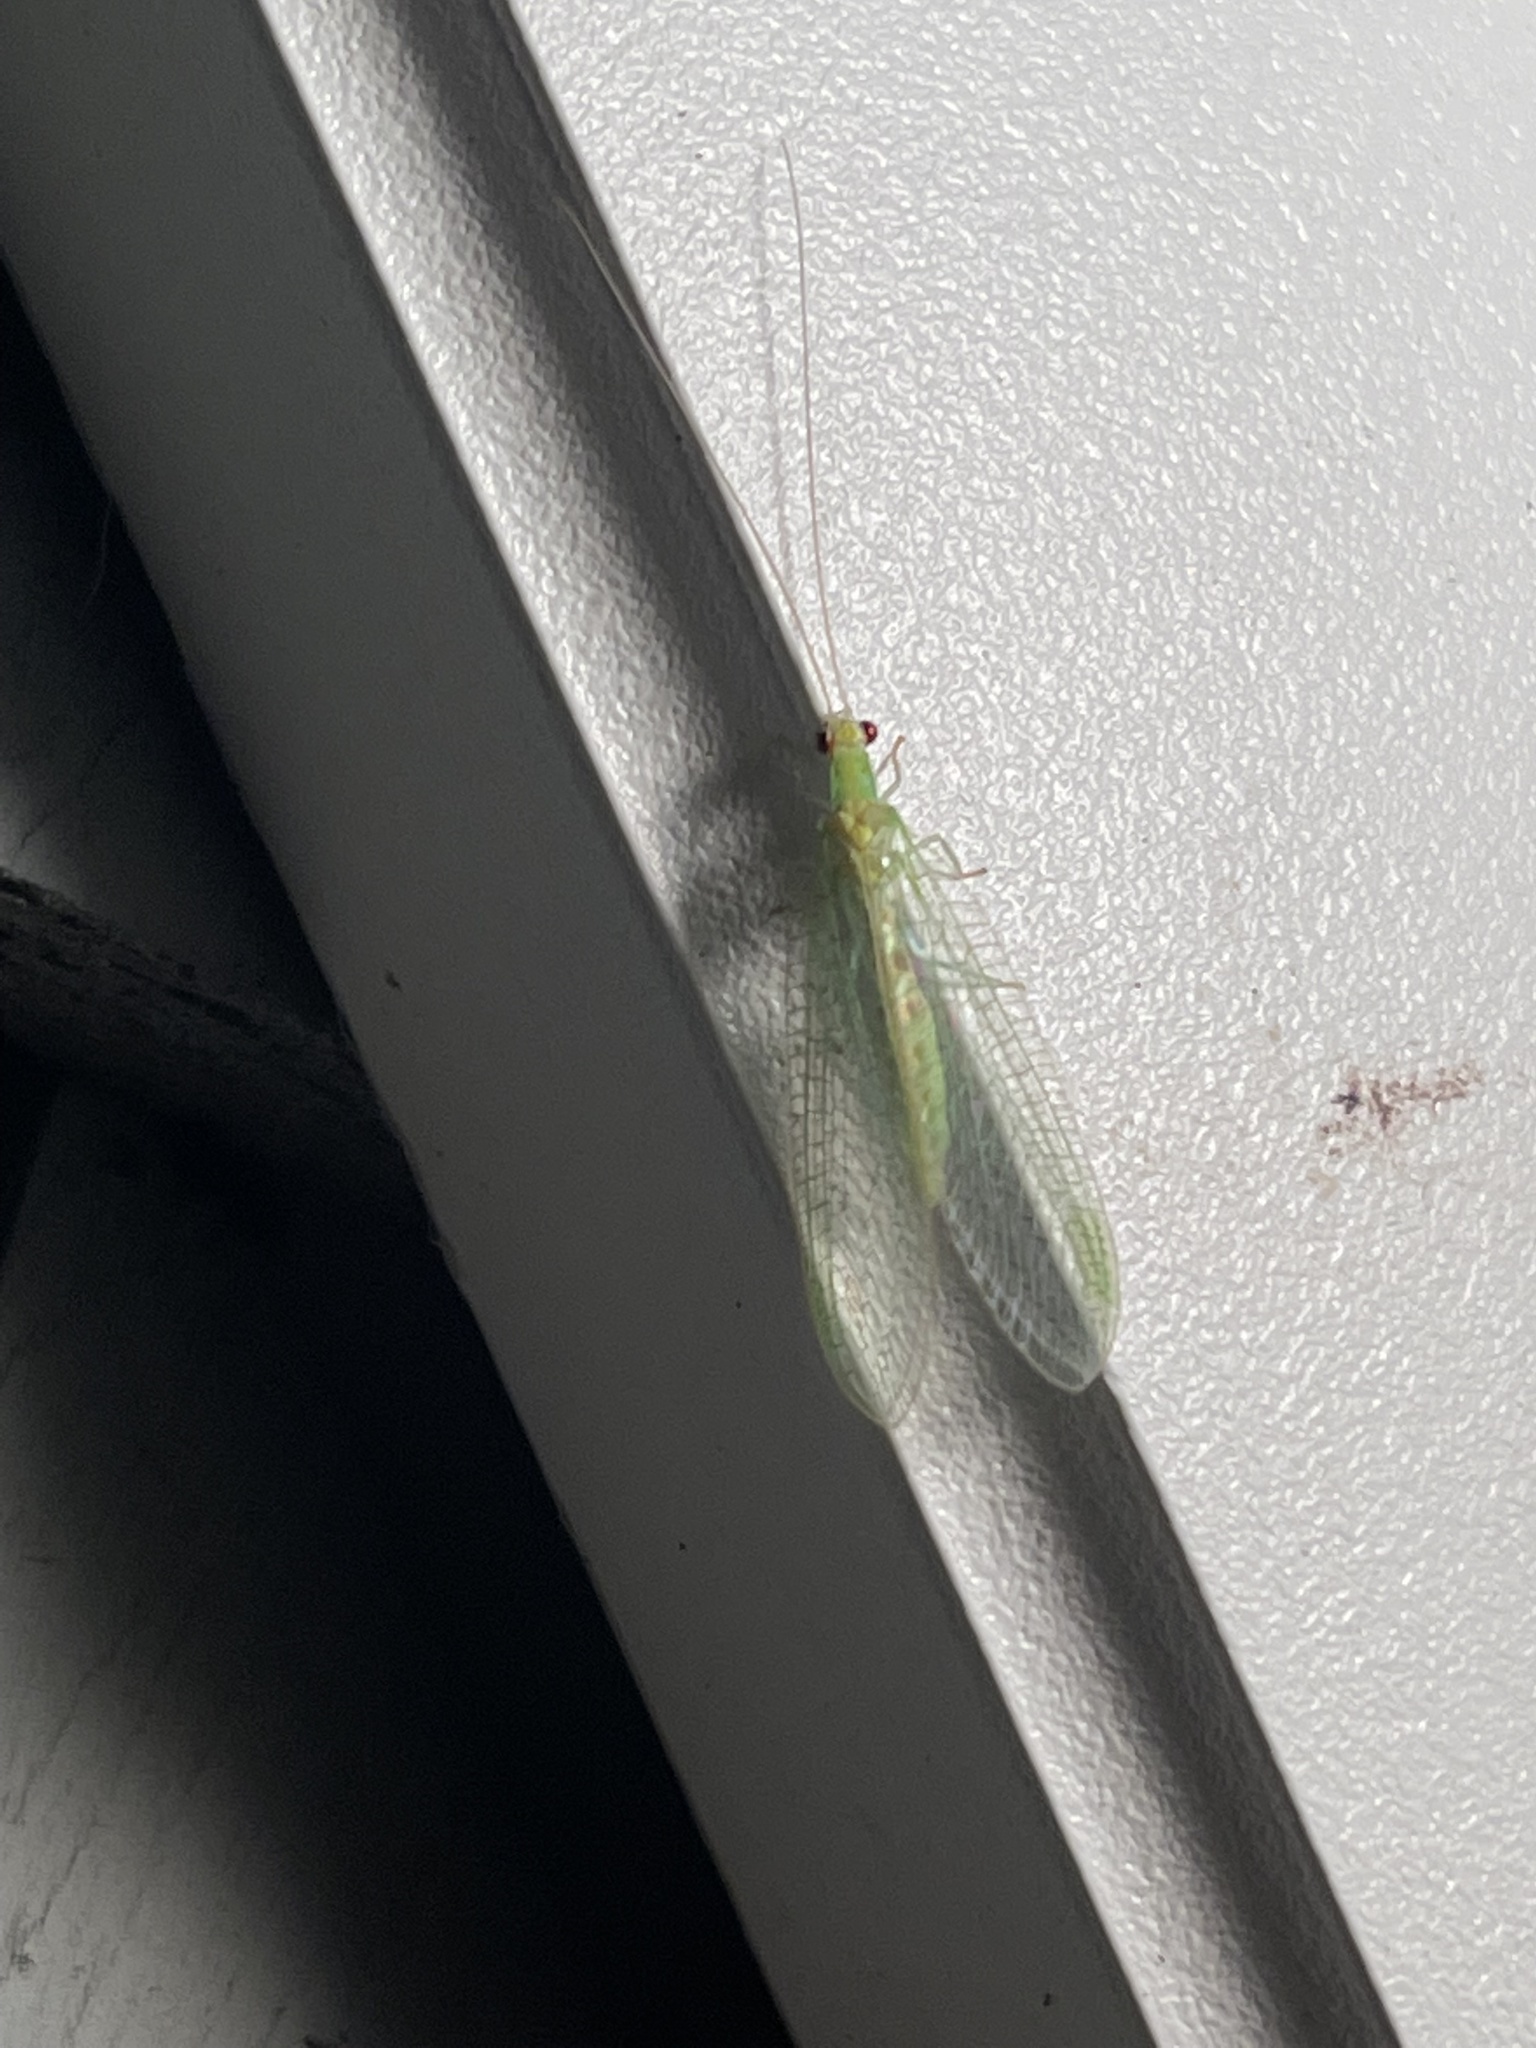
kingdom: Animalia
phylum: Arthropoda
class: Insecta
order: Neuroptera
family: Chrysopidae
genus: Chrysopa
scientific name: Chrysopa quadripunctata
